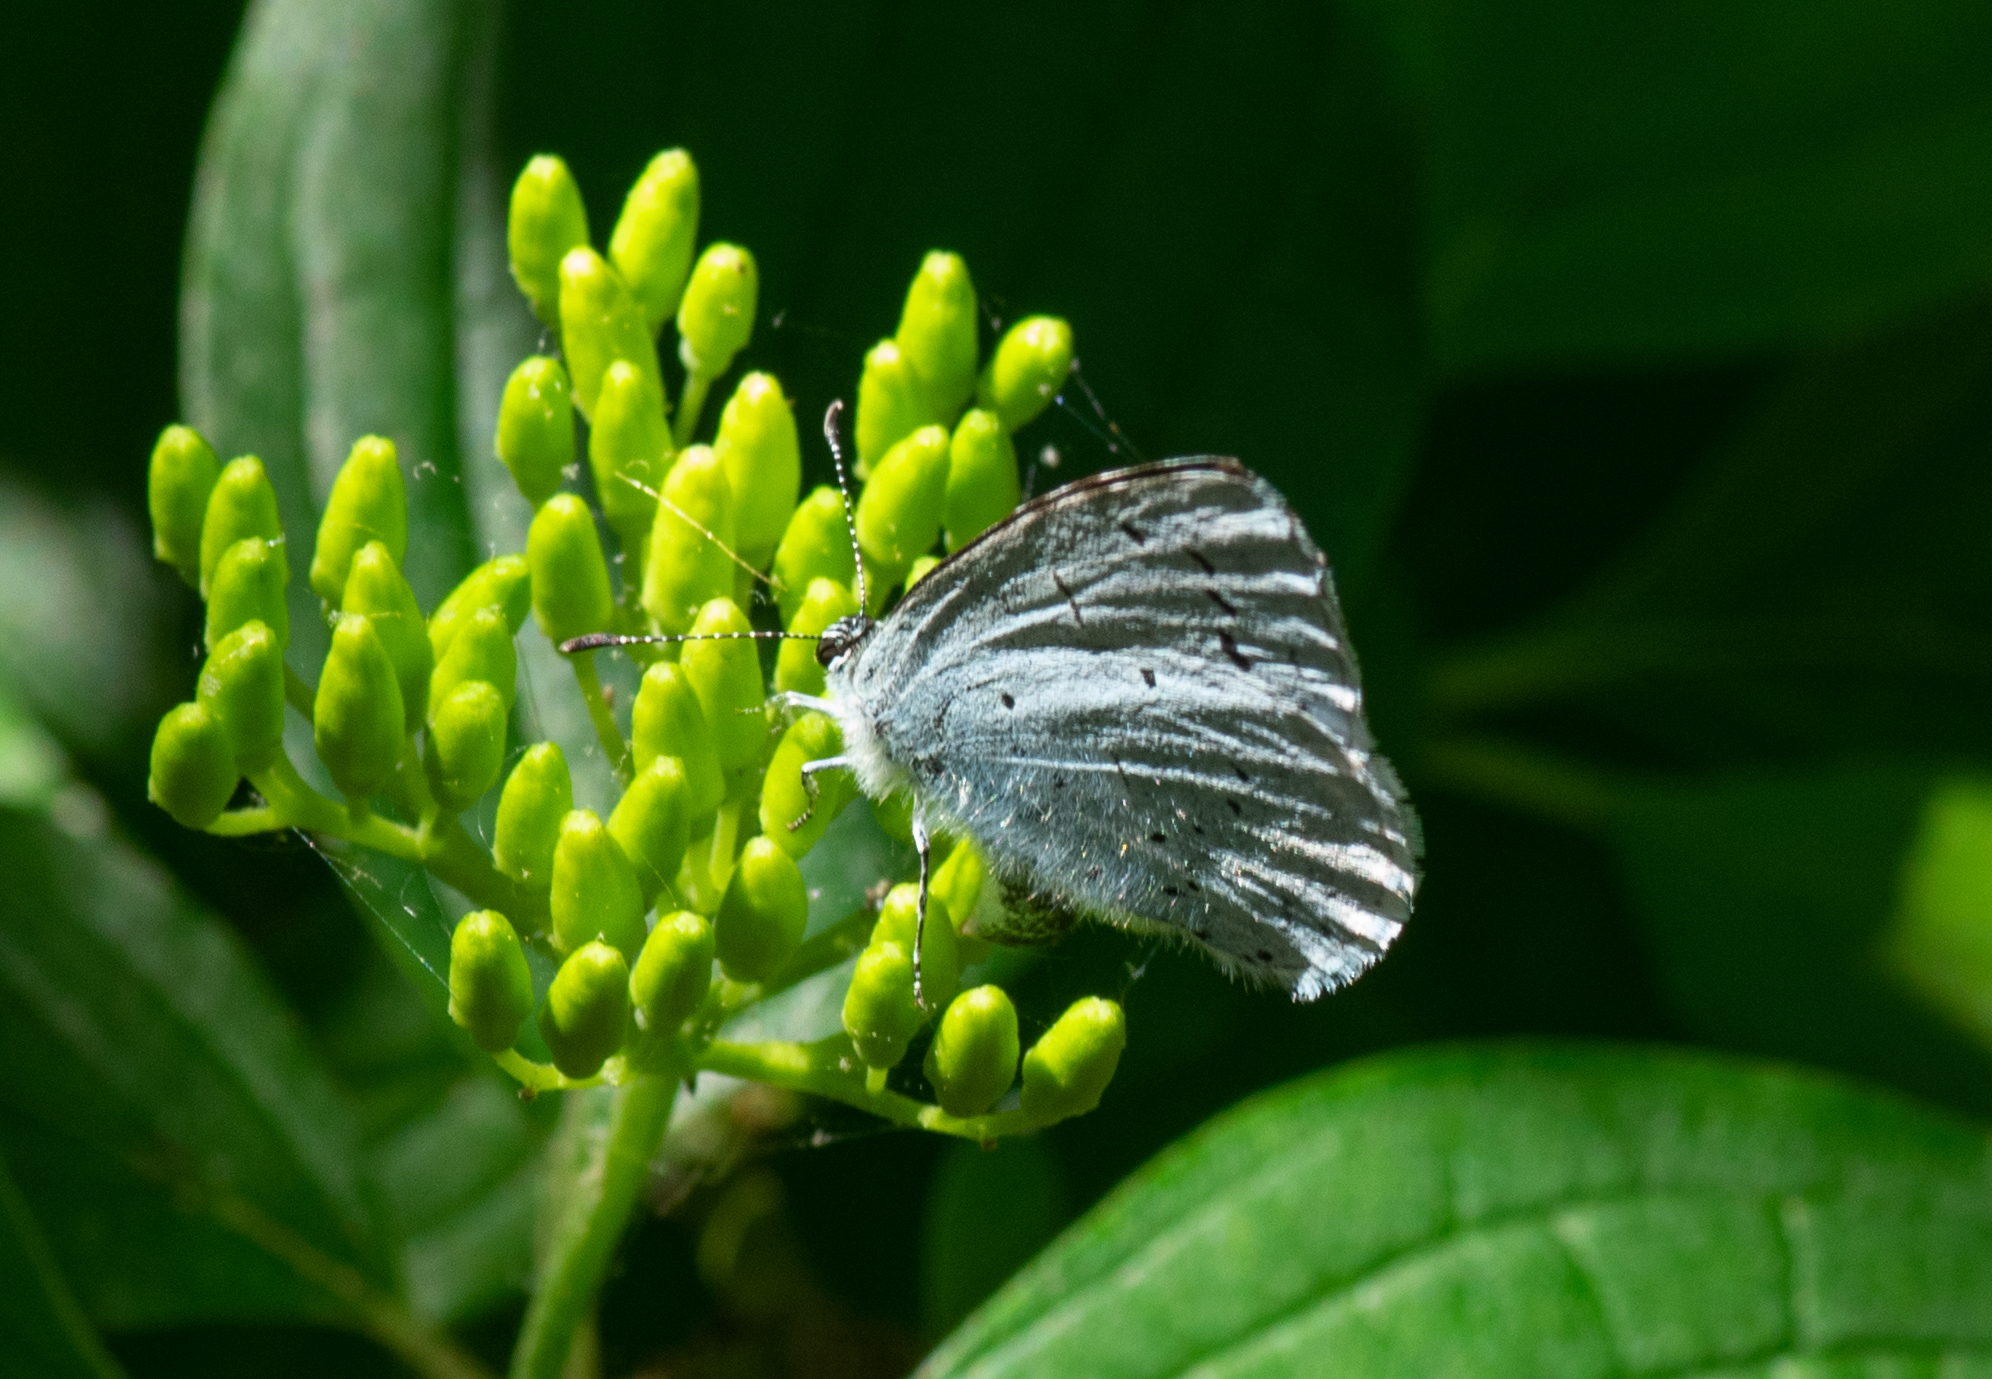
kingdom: Animalia
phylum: Arthropoda
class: Insecta
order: Lepidoptera
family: Lycaenidae
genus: Celastrina
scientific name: Celastrina argiolus
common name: Holly blue
